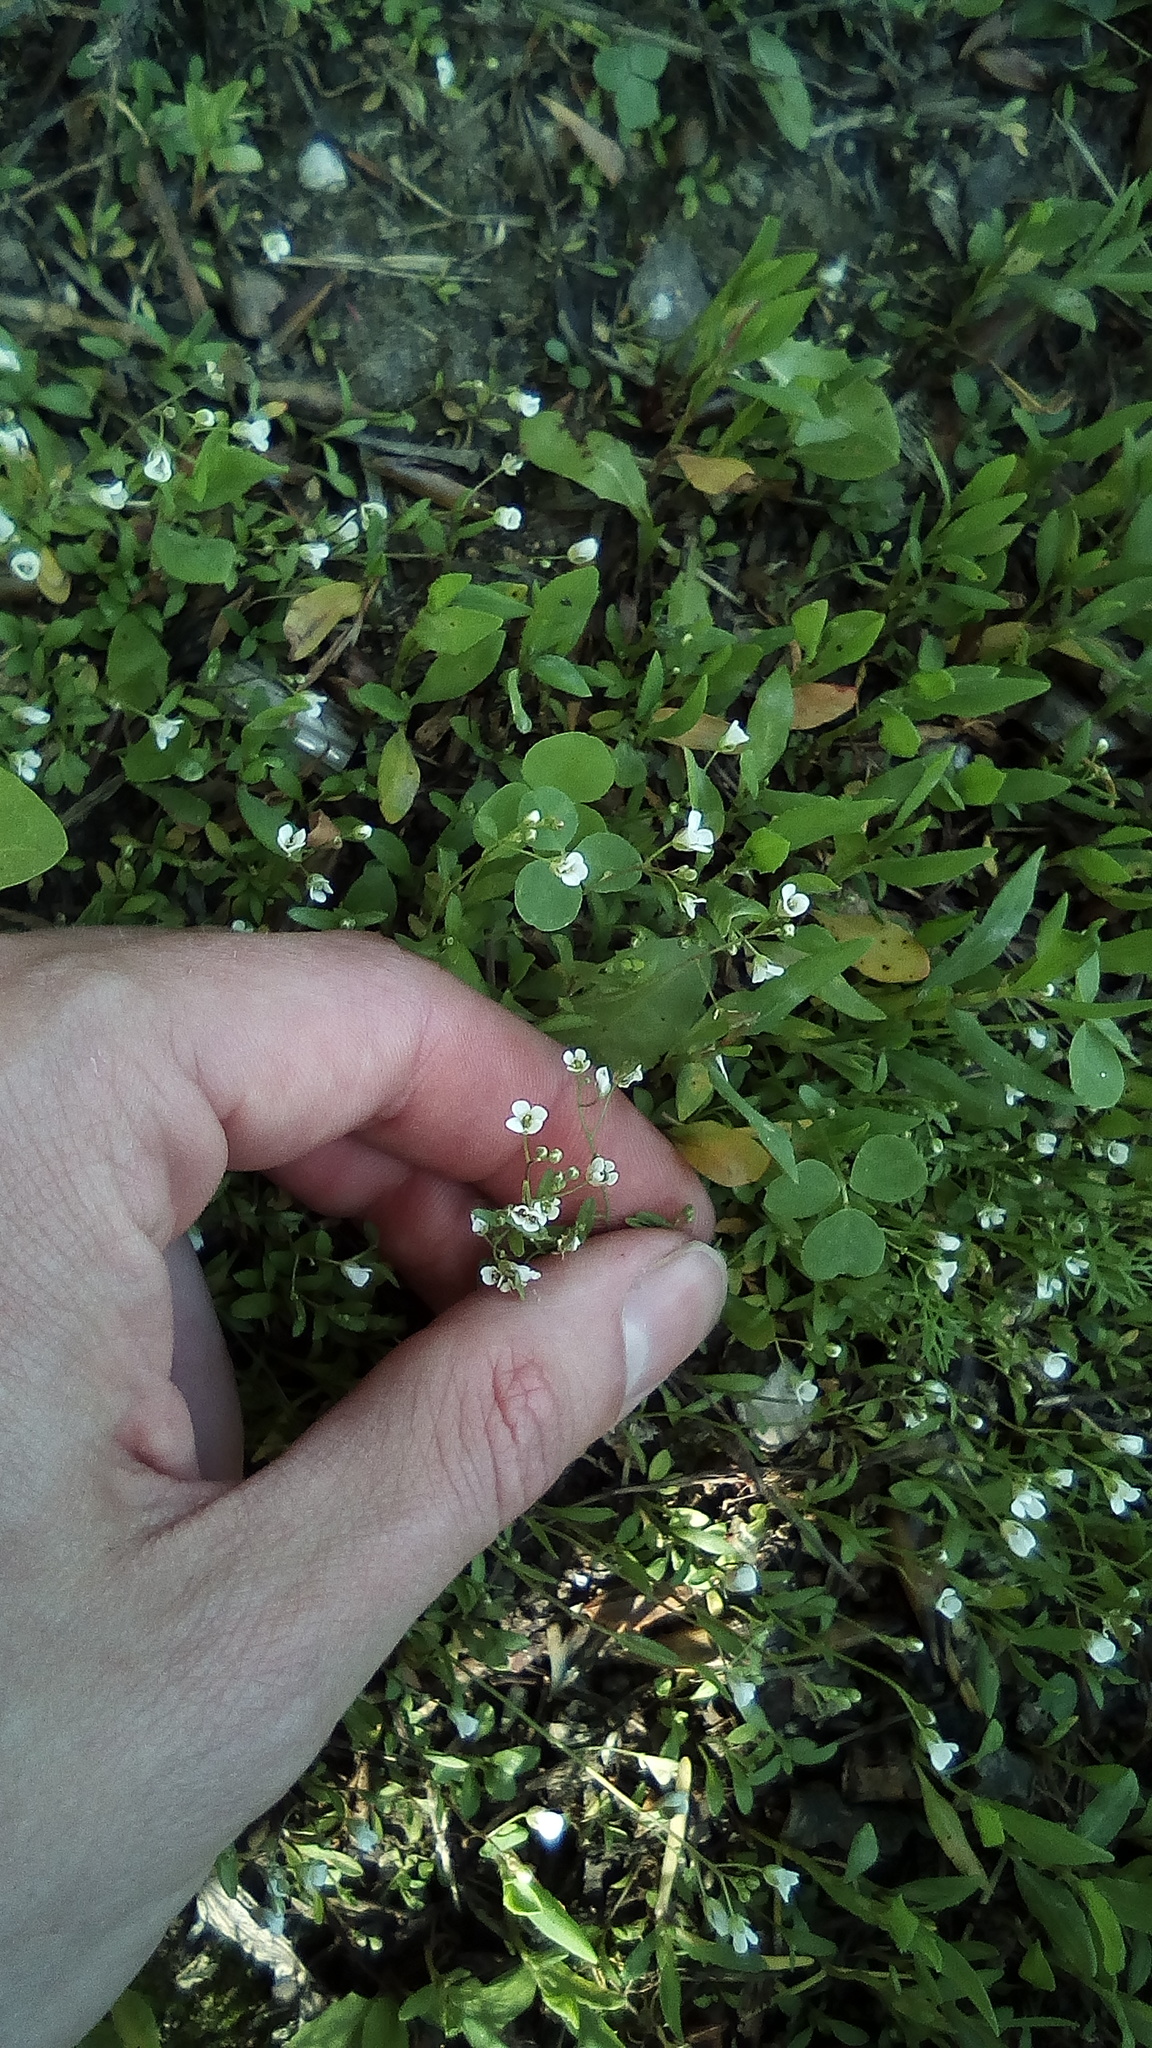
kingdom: Plantae
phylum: Tracheophyta
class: Magnoliopsida
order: Brassicales
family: Brassicaceae
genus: Capsella
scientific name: Capsella bursa-pastoris
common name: Shepherd's purse
